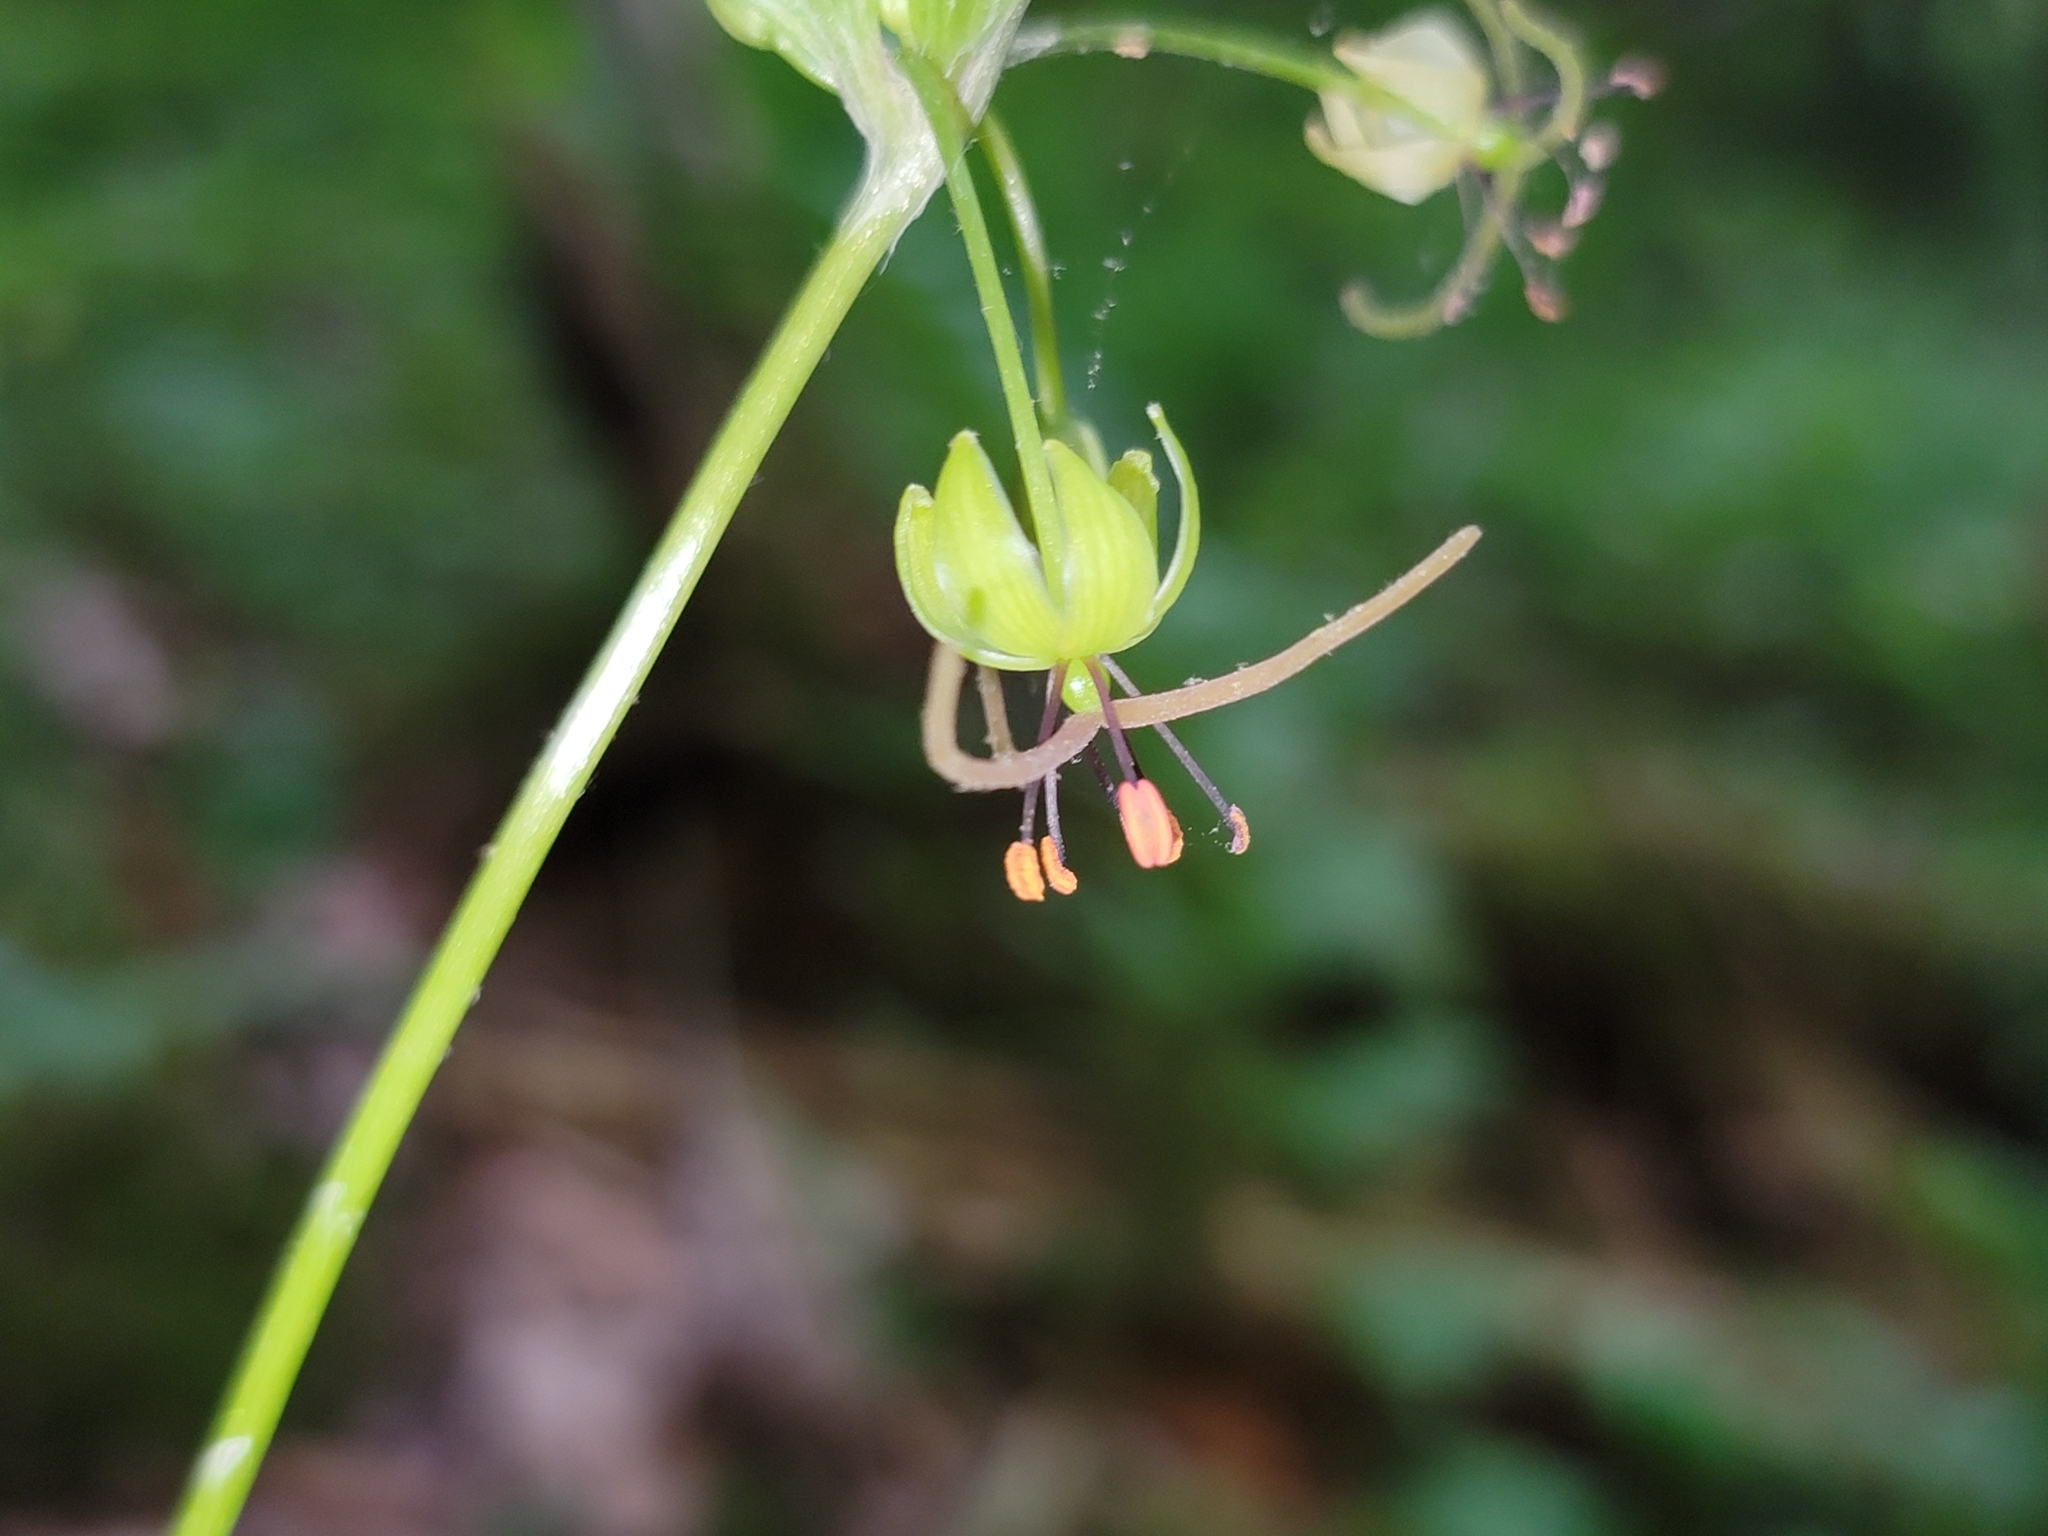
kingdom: Plantae
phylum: Tracheophyta
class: Liliopsida
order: Liliales
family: Liliaceae
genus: Medeola
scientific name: Medeola virginiana
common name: Indian cucumber-root
